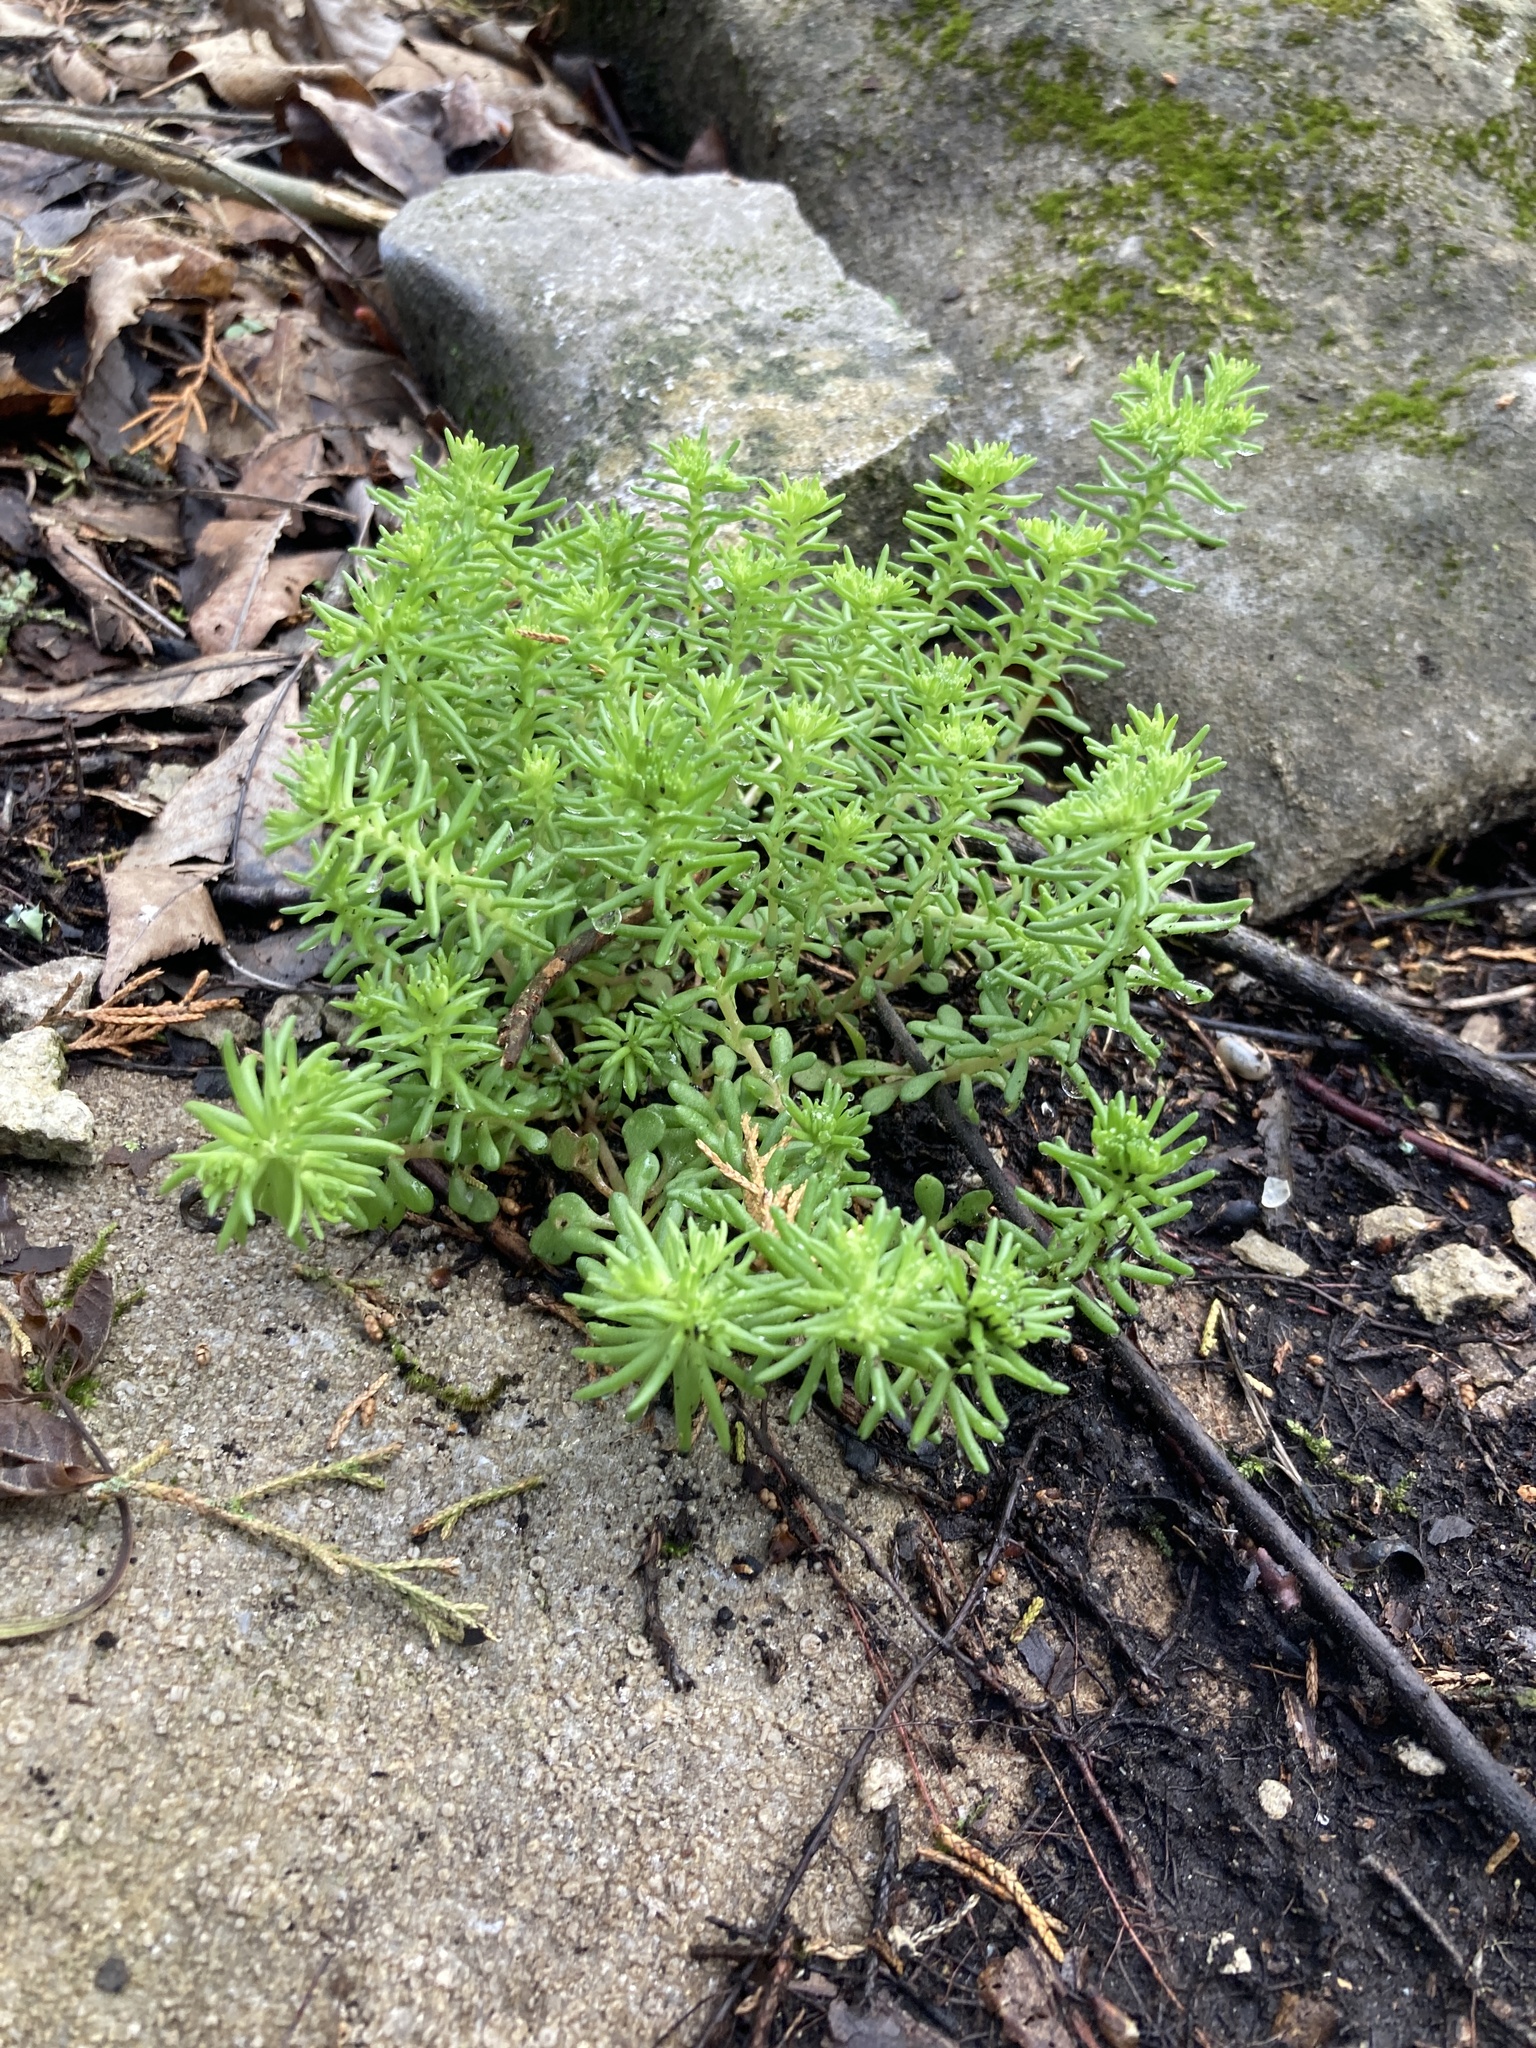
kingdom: Plantae
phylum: Tracheophyta
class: Magnoliopsida
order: Saxifragales
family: Crassulaceae
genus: Sedum
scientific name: Sedum pulchellum
